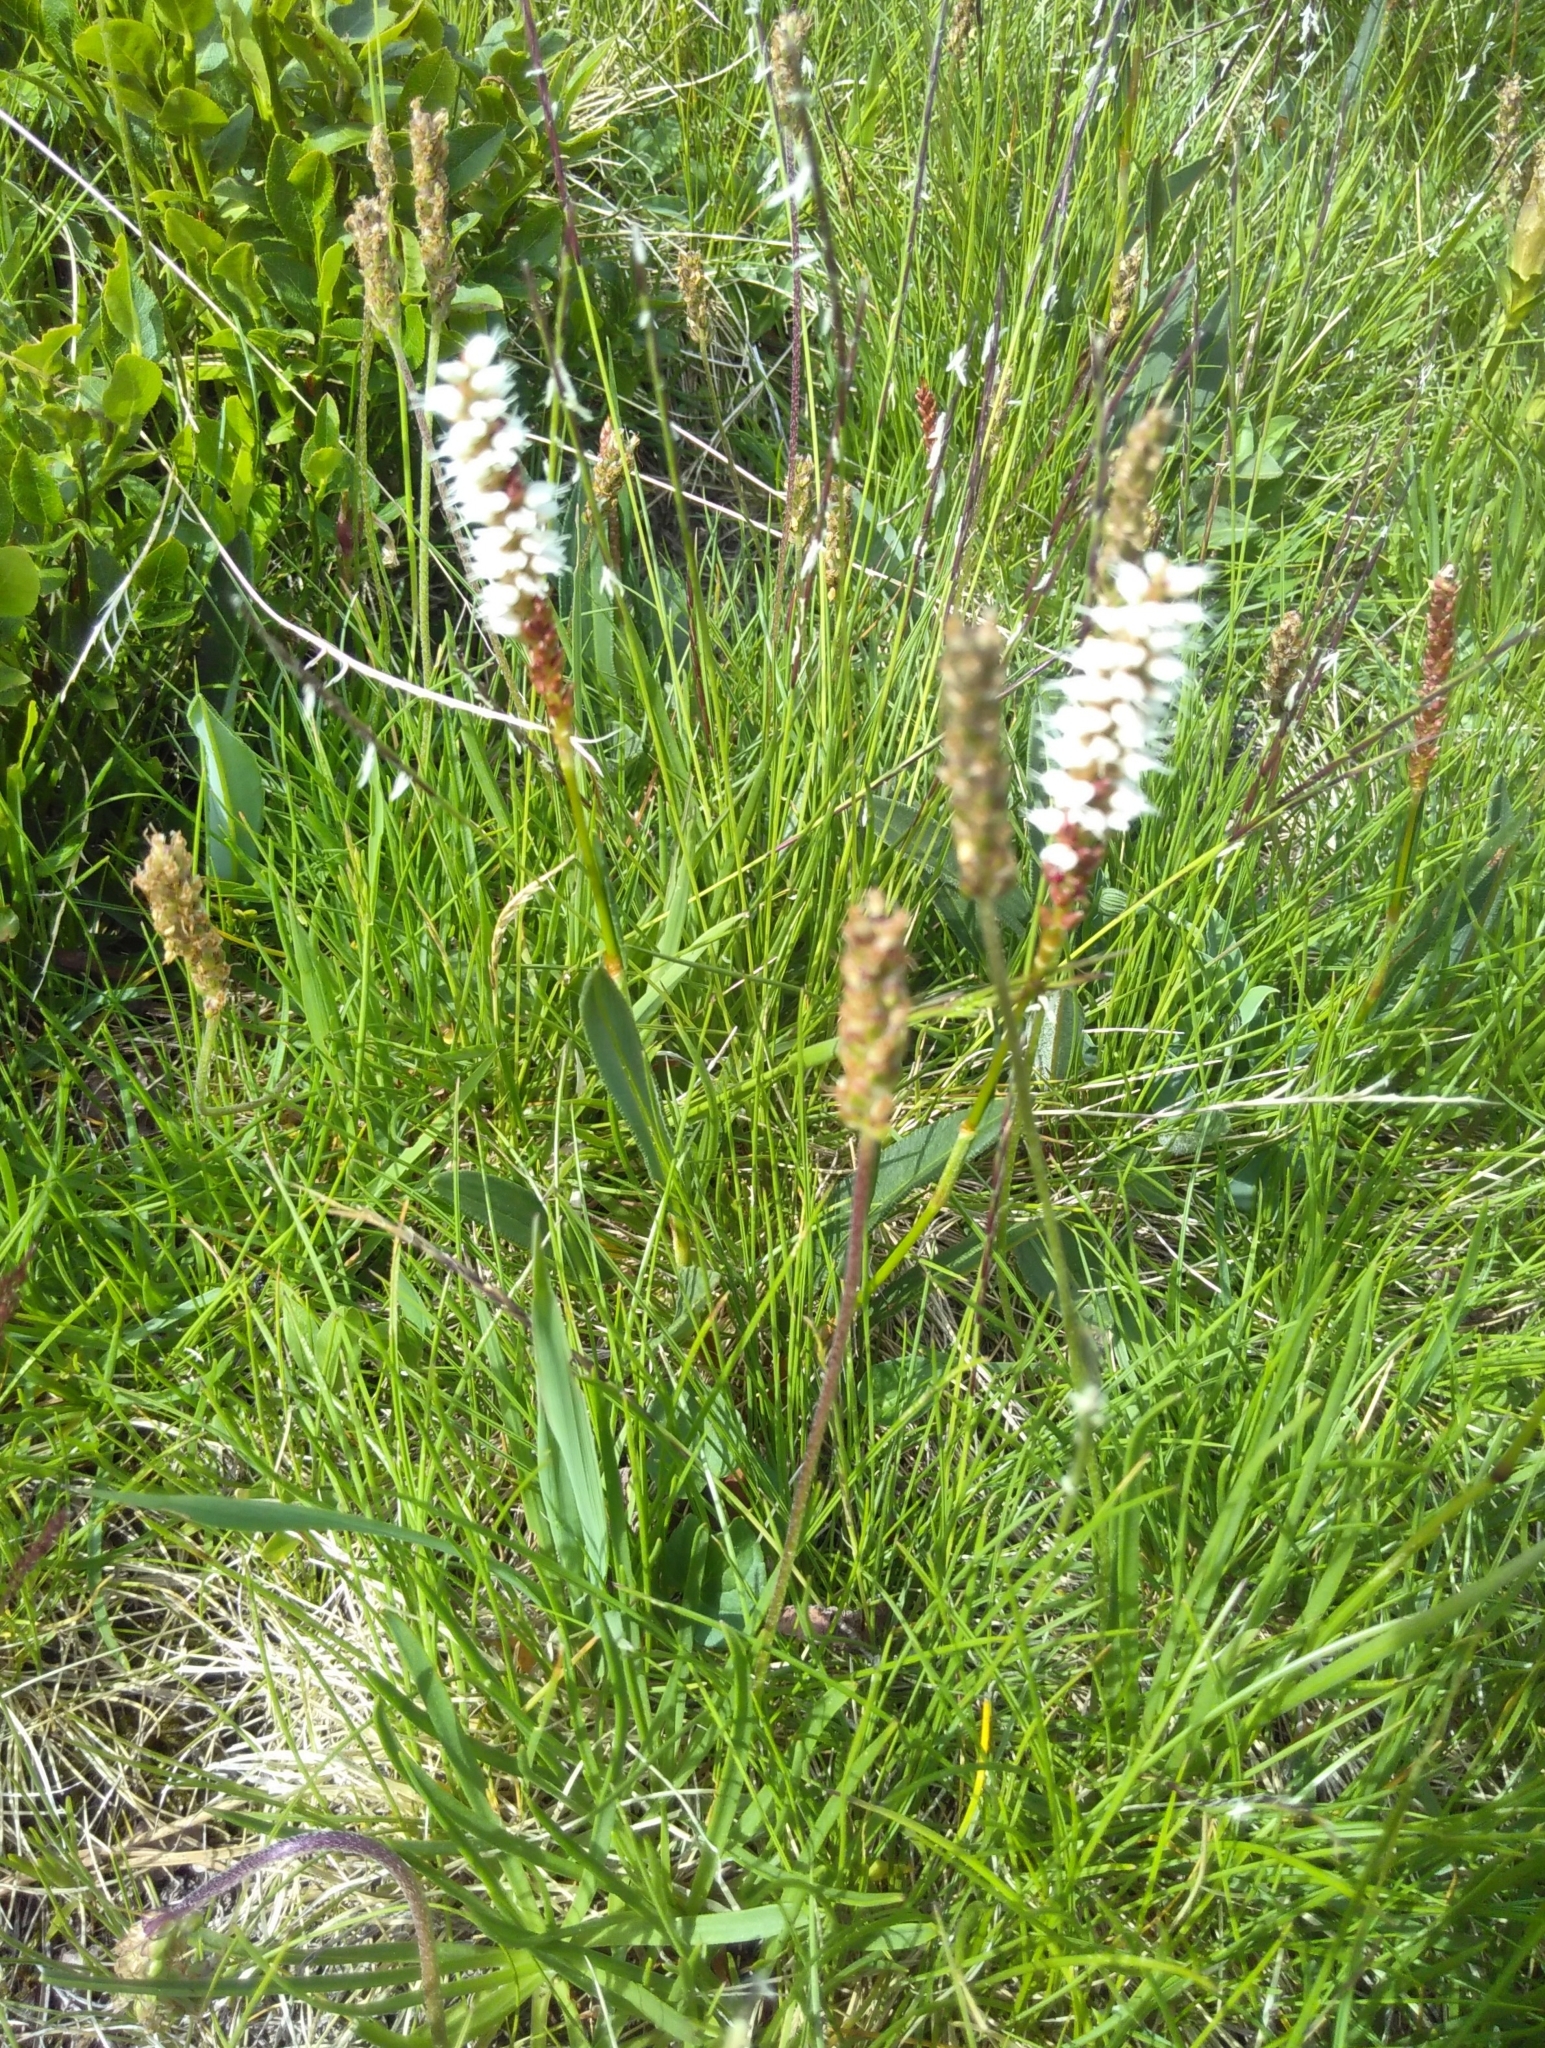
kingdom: Plantae
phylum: Tracheophyta
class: Magnoliopsida
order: Caryophyllales
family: Polygonaceae
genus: Bistorta
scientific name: Bistorta vivipara
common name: Alpine bistort
